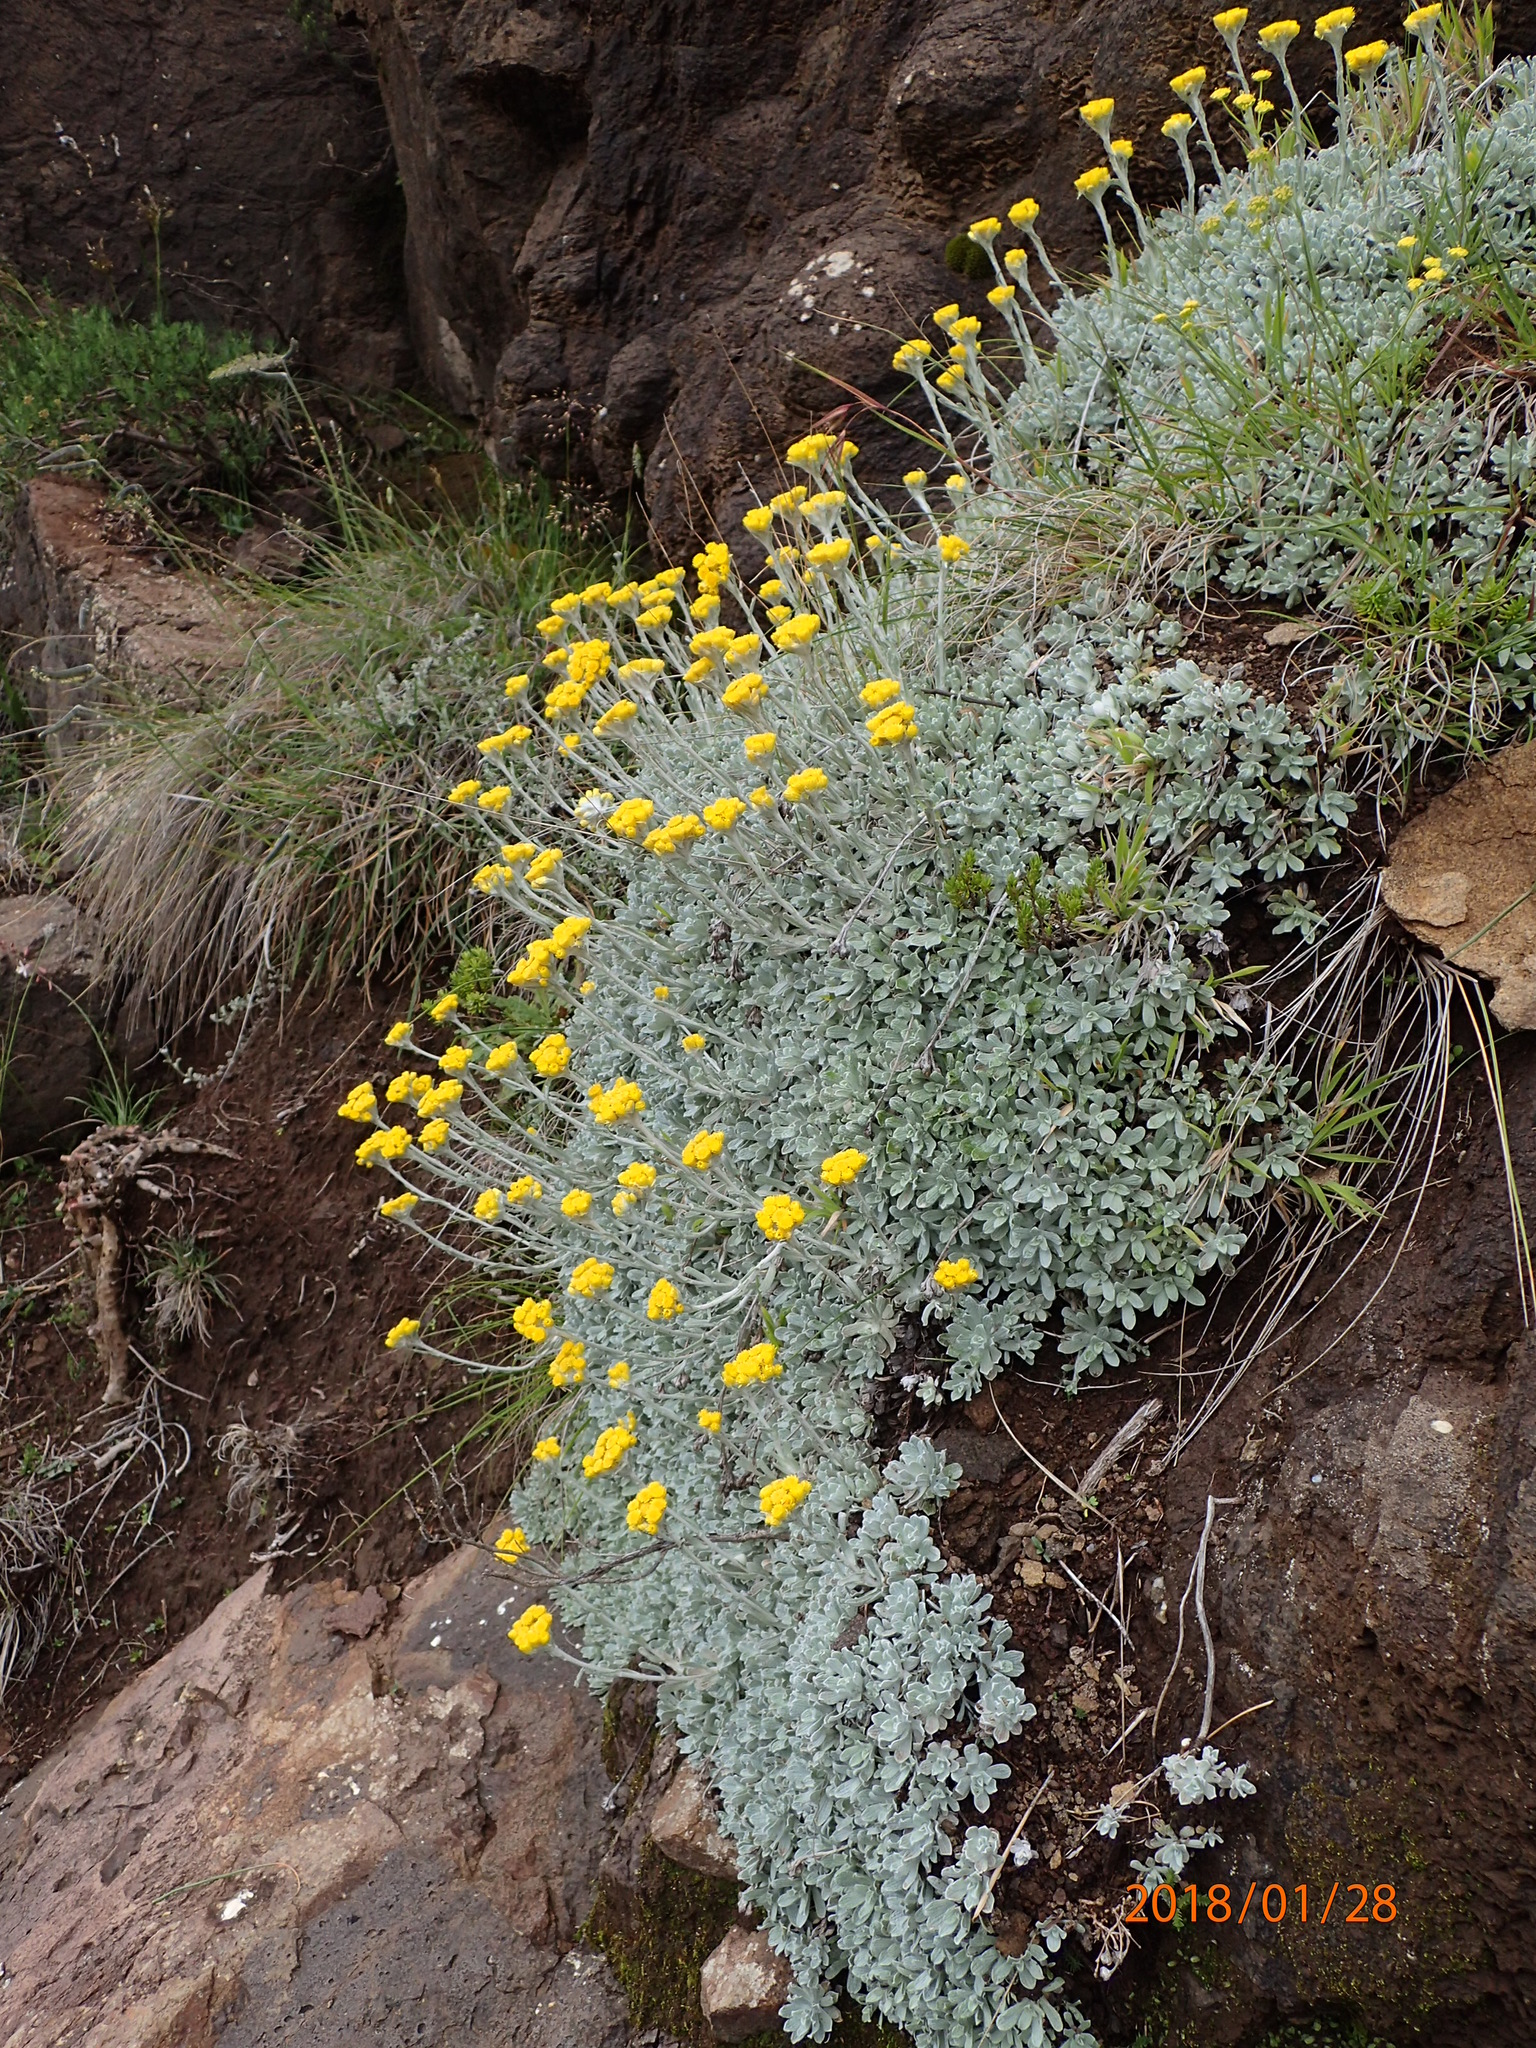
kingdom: Plantae
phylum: Tracheophyta
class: Magnoliopsida
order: Asterales
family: Asteraceae
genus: Helichrysum
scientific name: Helichrysum montanum
